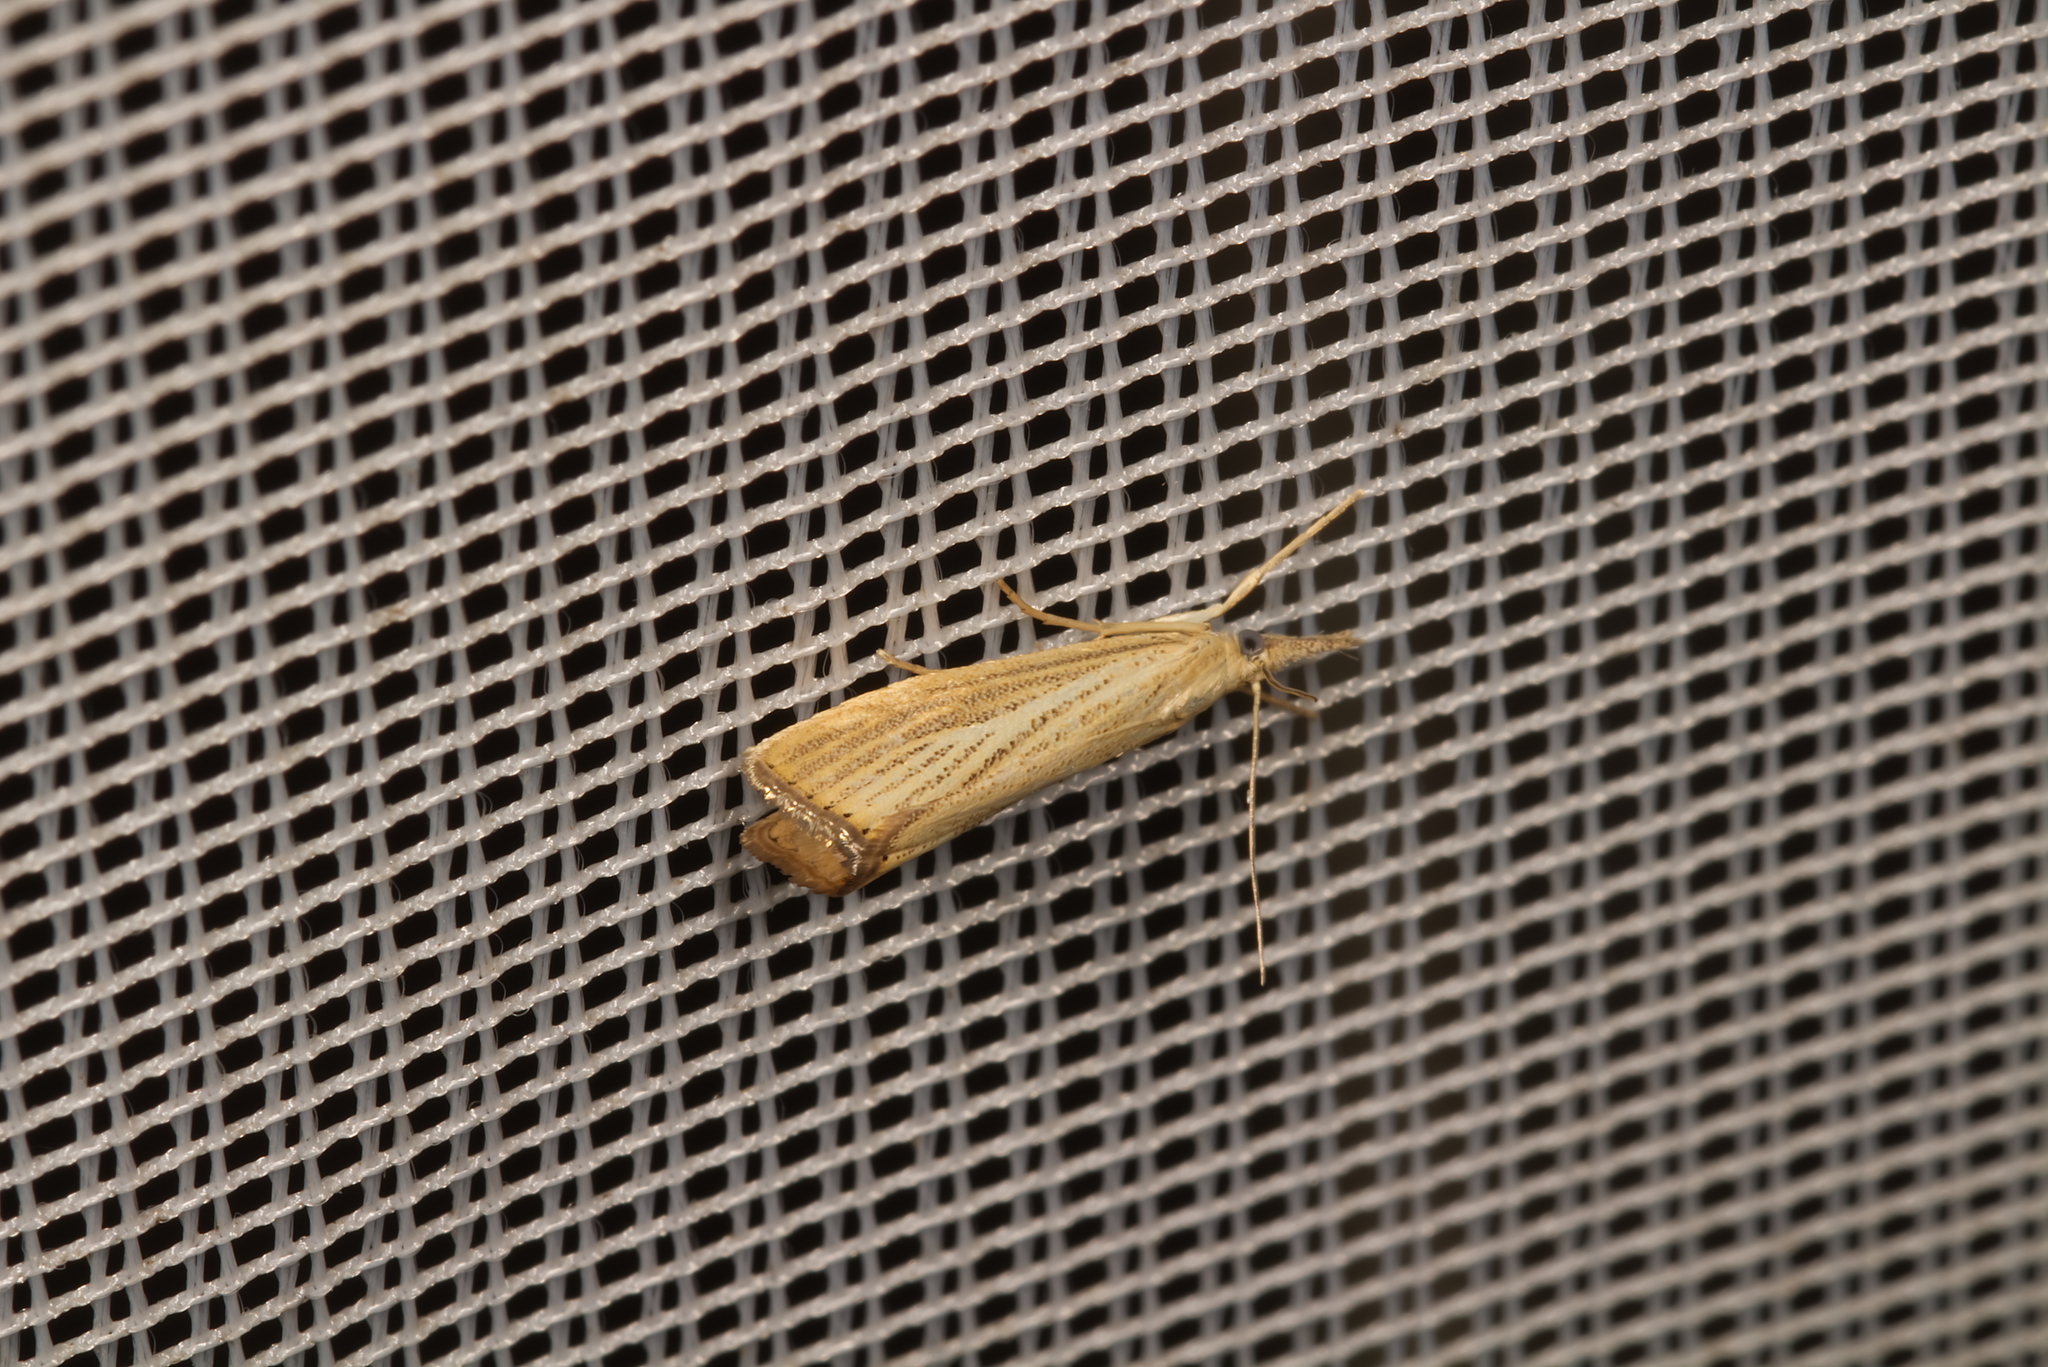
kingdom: Animalia
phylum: Arthropoda
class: Insecta
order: Lepidoptera
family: Crambidae
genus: Agriphila
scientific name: Agriphila straminella
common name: Straw grass-veneer
